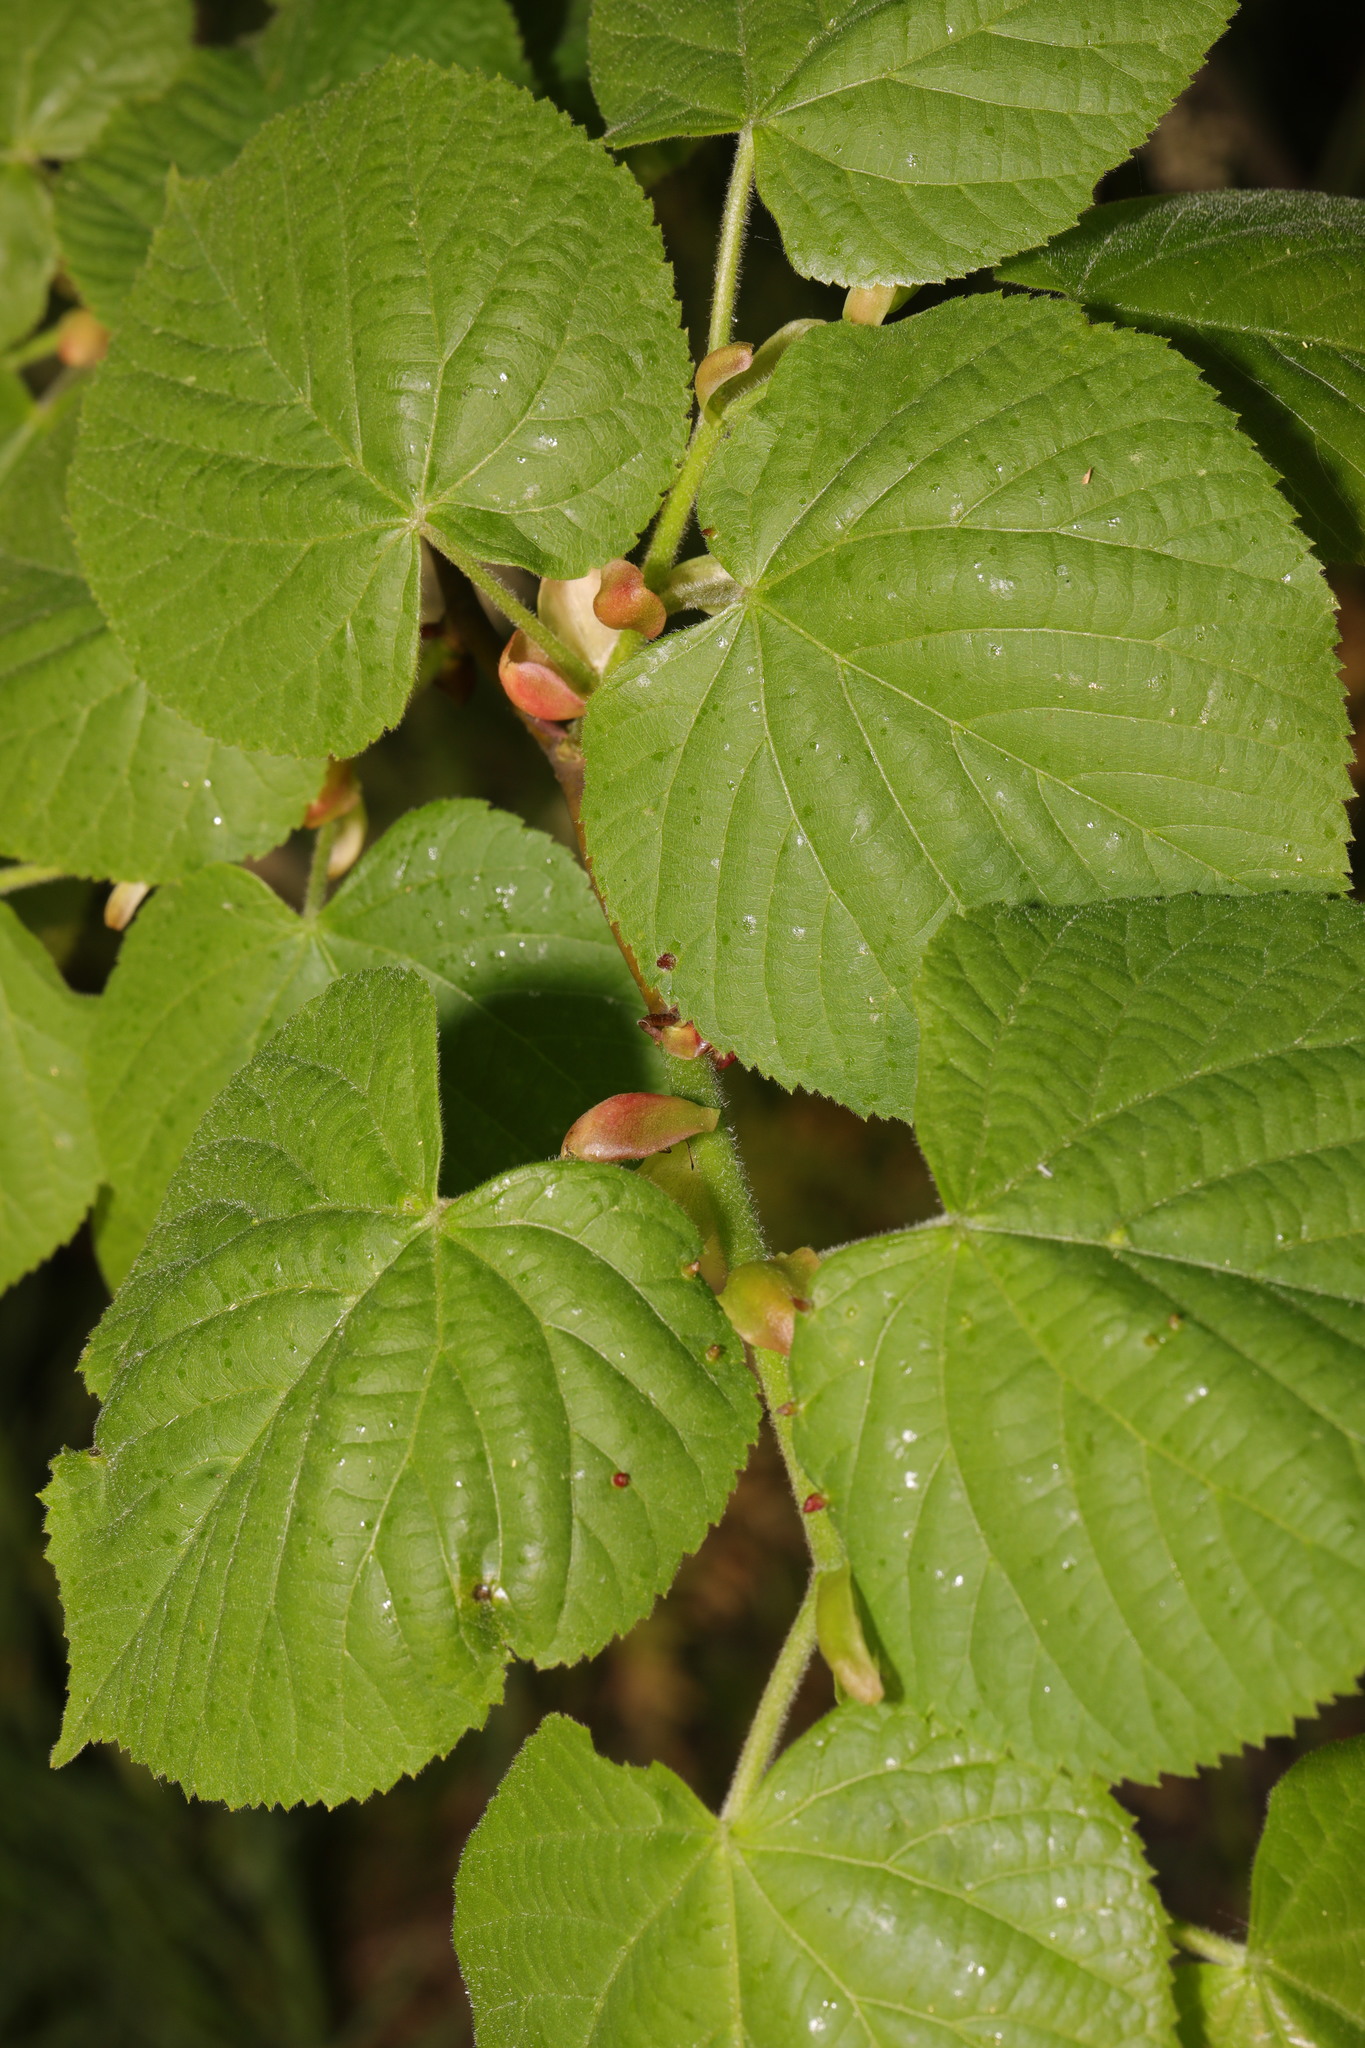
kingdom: Plantae
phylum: Tracheophyta
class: Magnoliopsida
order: Malvales
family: Malvaceae
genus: Tilia
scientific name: Tilia europaea
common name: European linden
